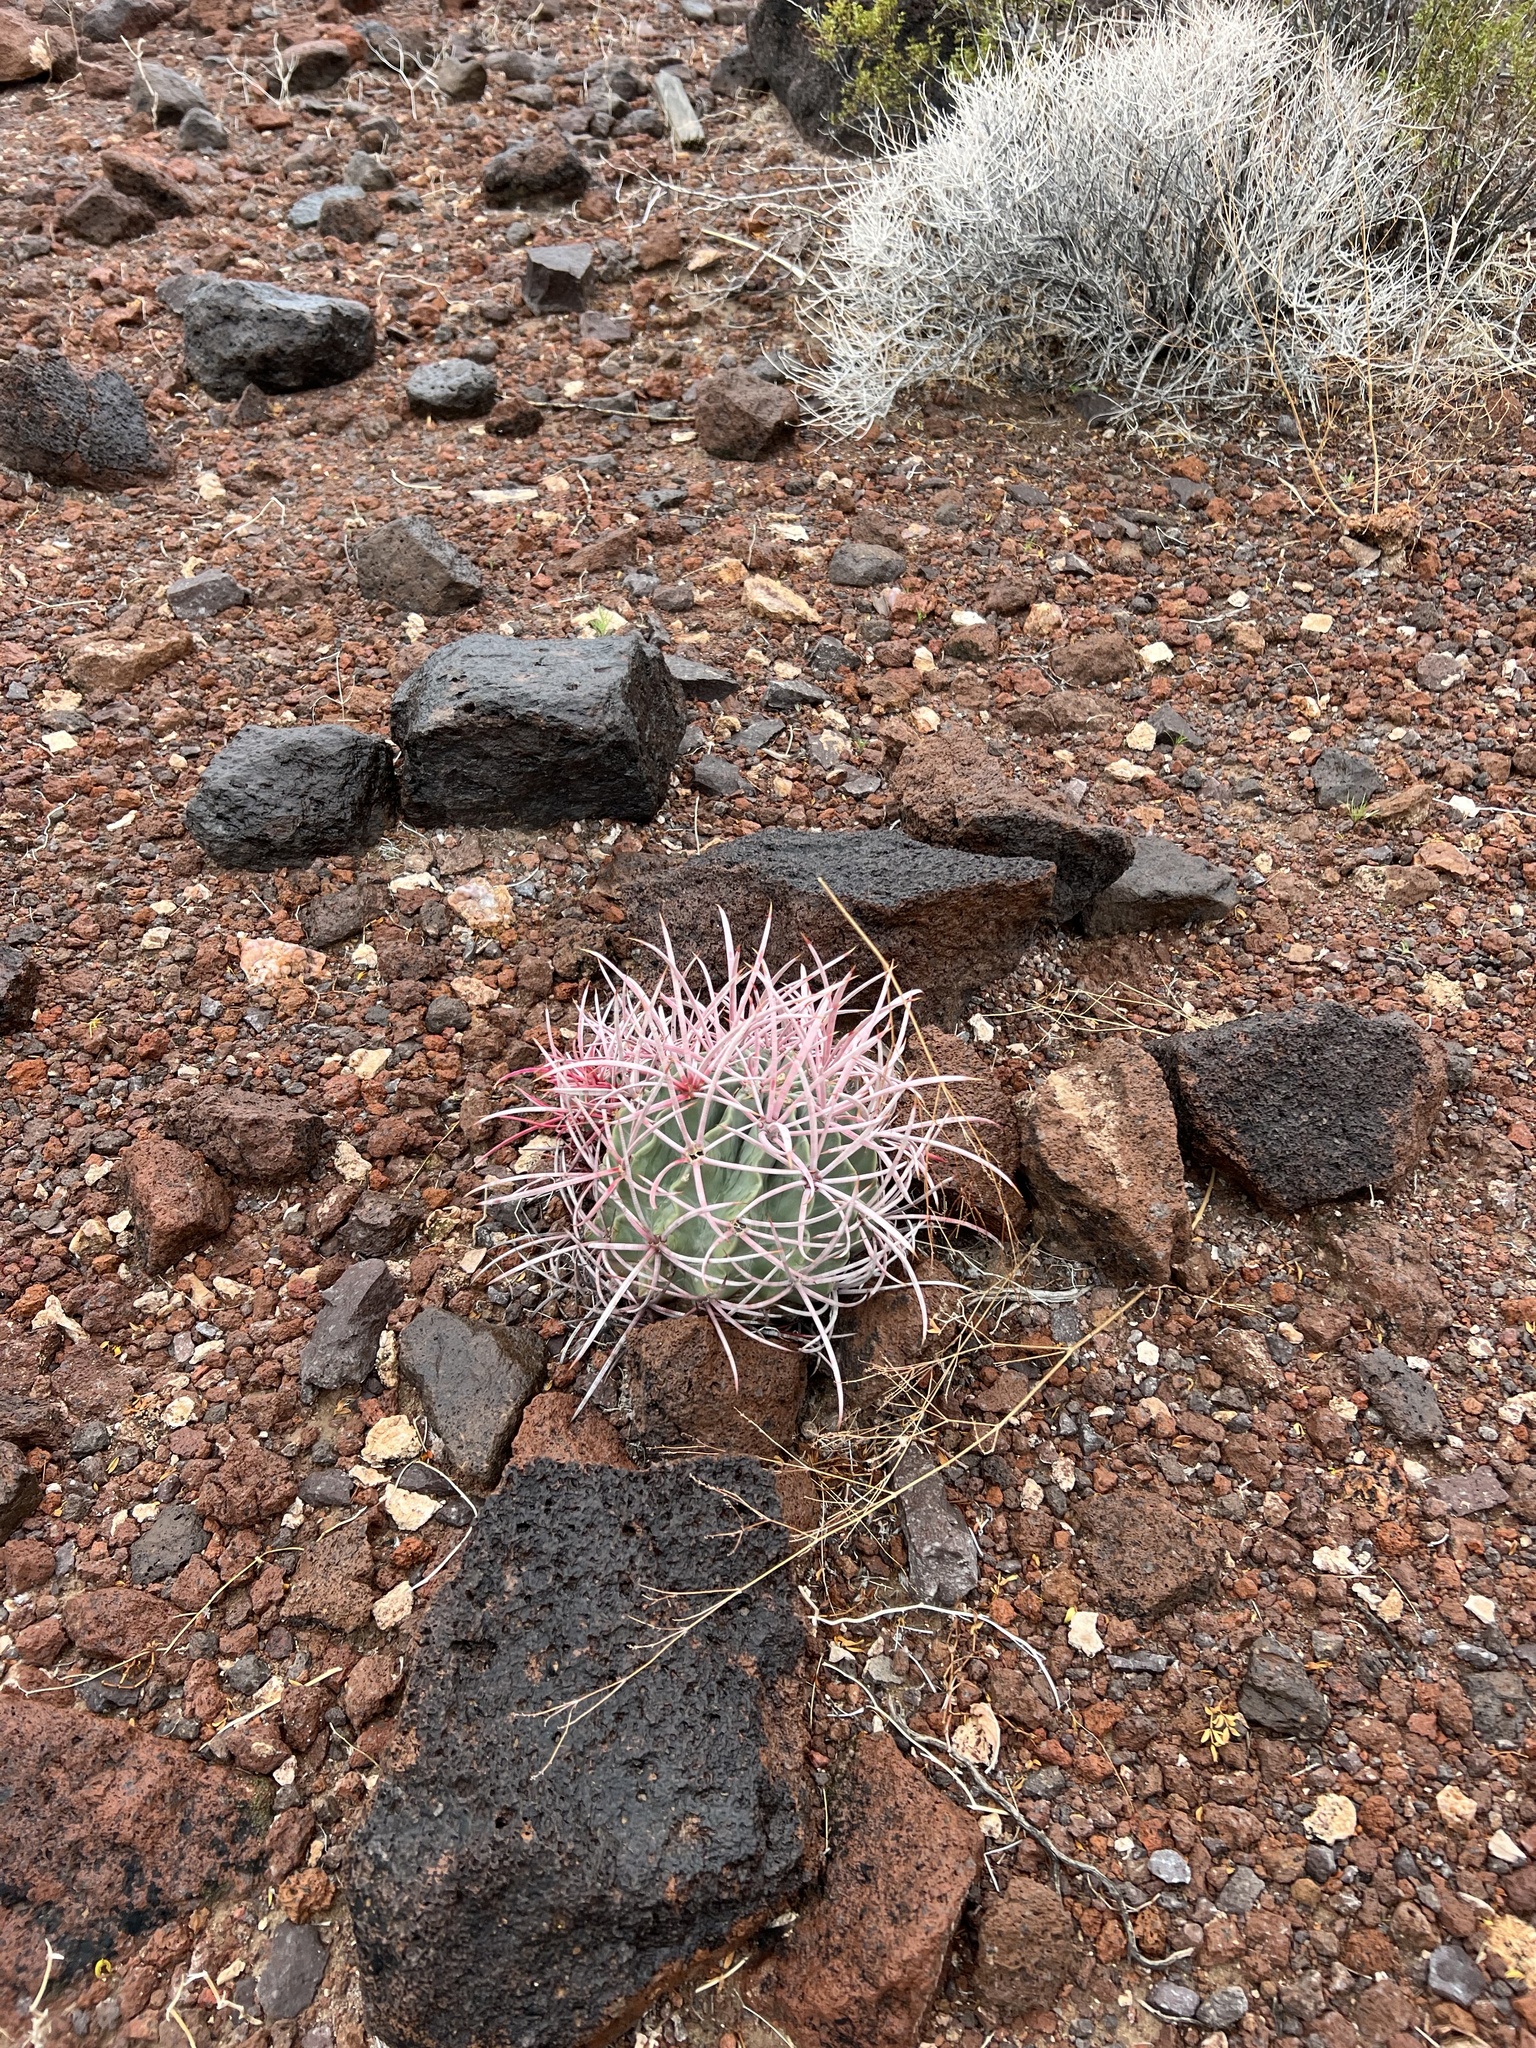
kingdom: Plantae
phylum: Tracheophyta
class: Magnoliopsida
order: Caryophyllales
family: Cactaceae
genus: Echinocactus
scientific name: Echinocactus polycephalus
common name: Cottontop cactus
